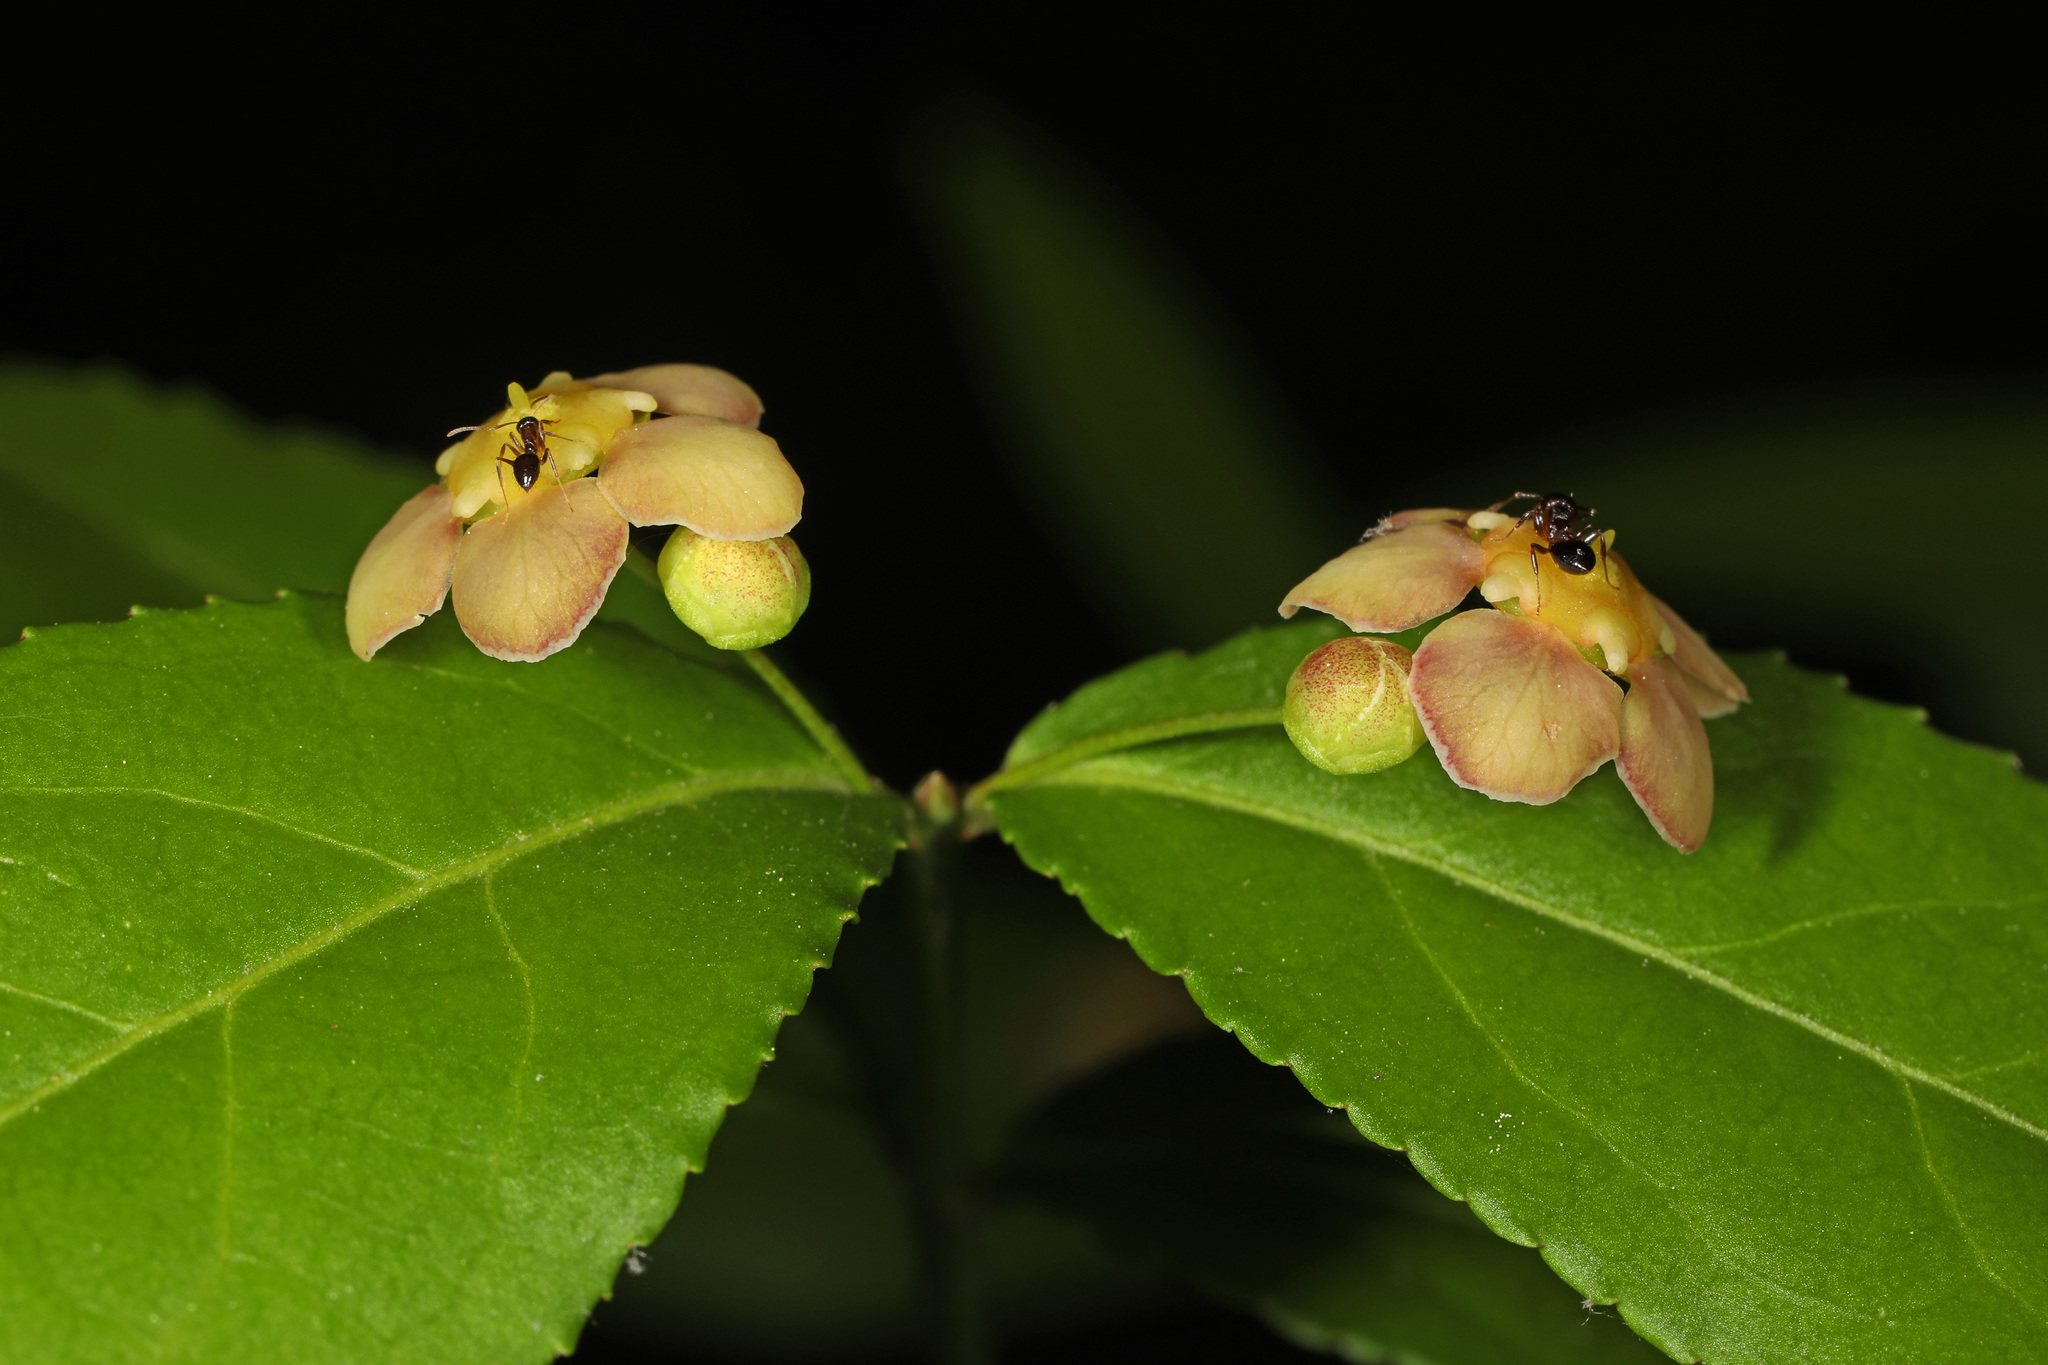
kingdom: Plantae
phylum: Tracheophyta
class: Magnoliopsida
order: Celastrales
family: Celastraceae
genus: Euonymus
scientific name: Euonymus americanus
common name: Bursting-heart
